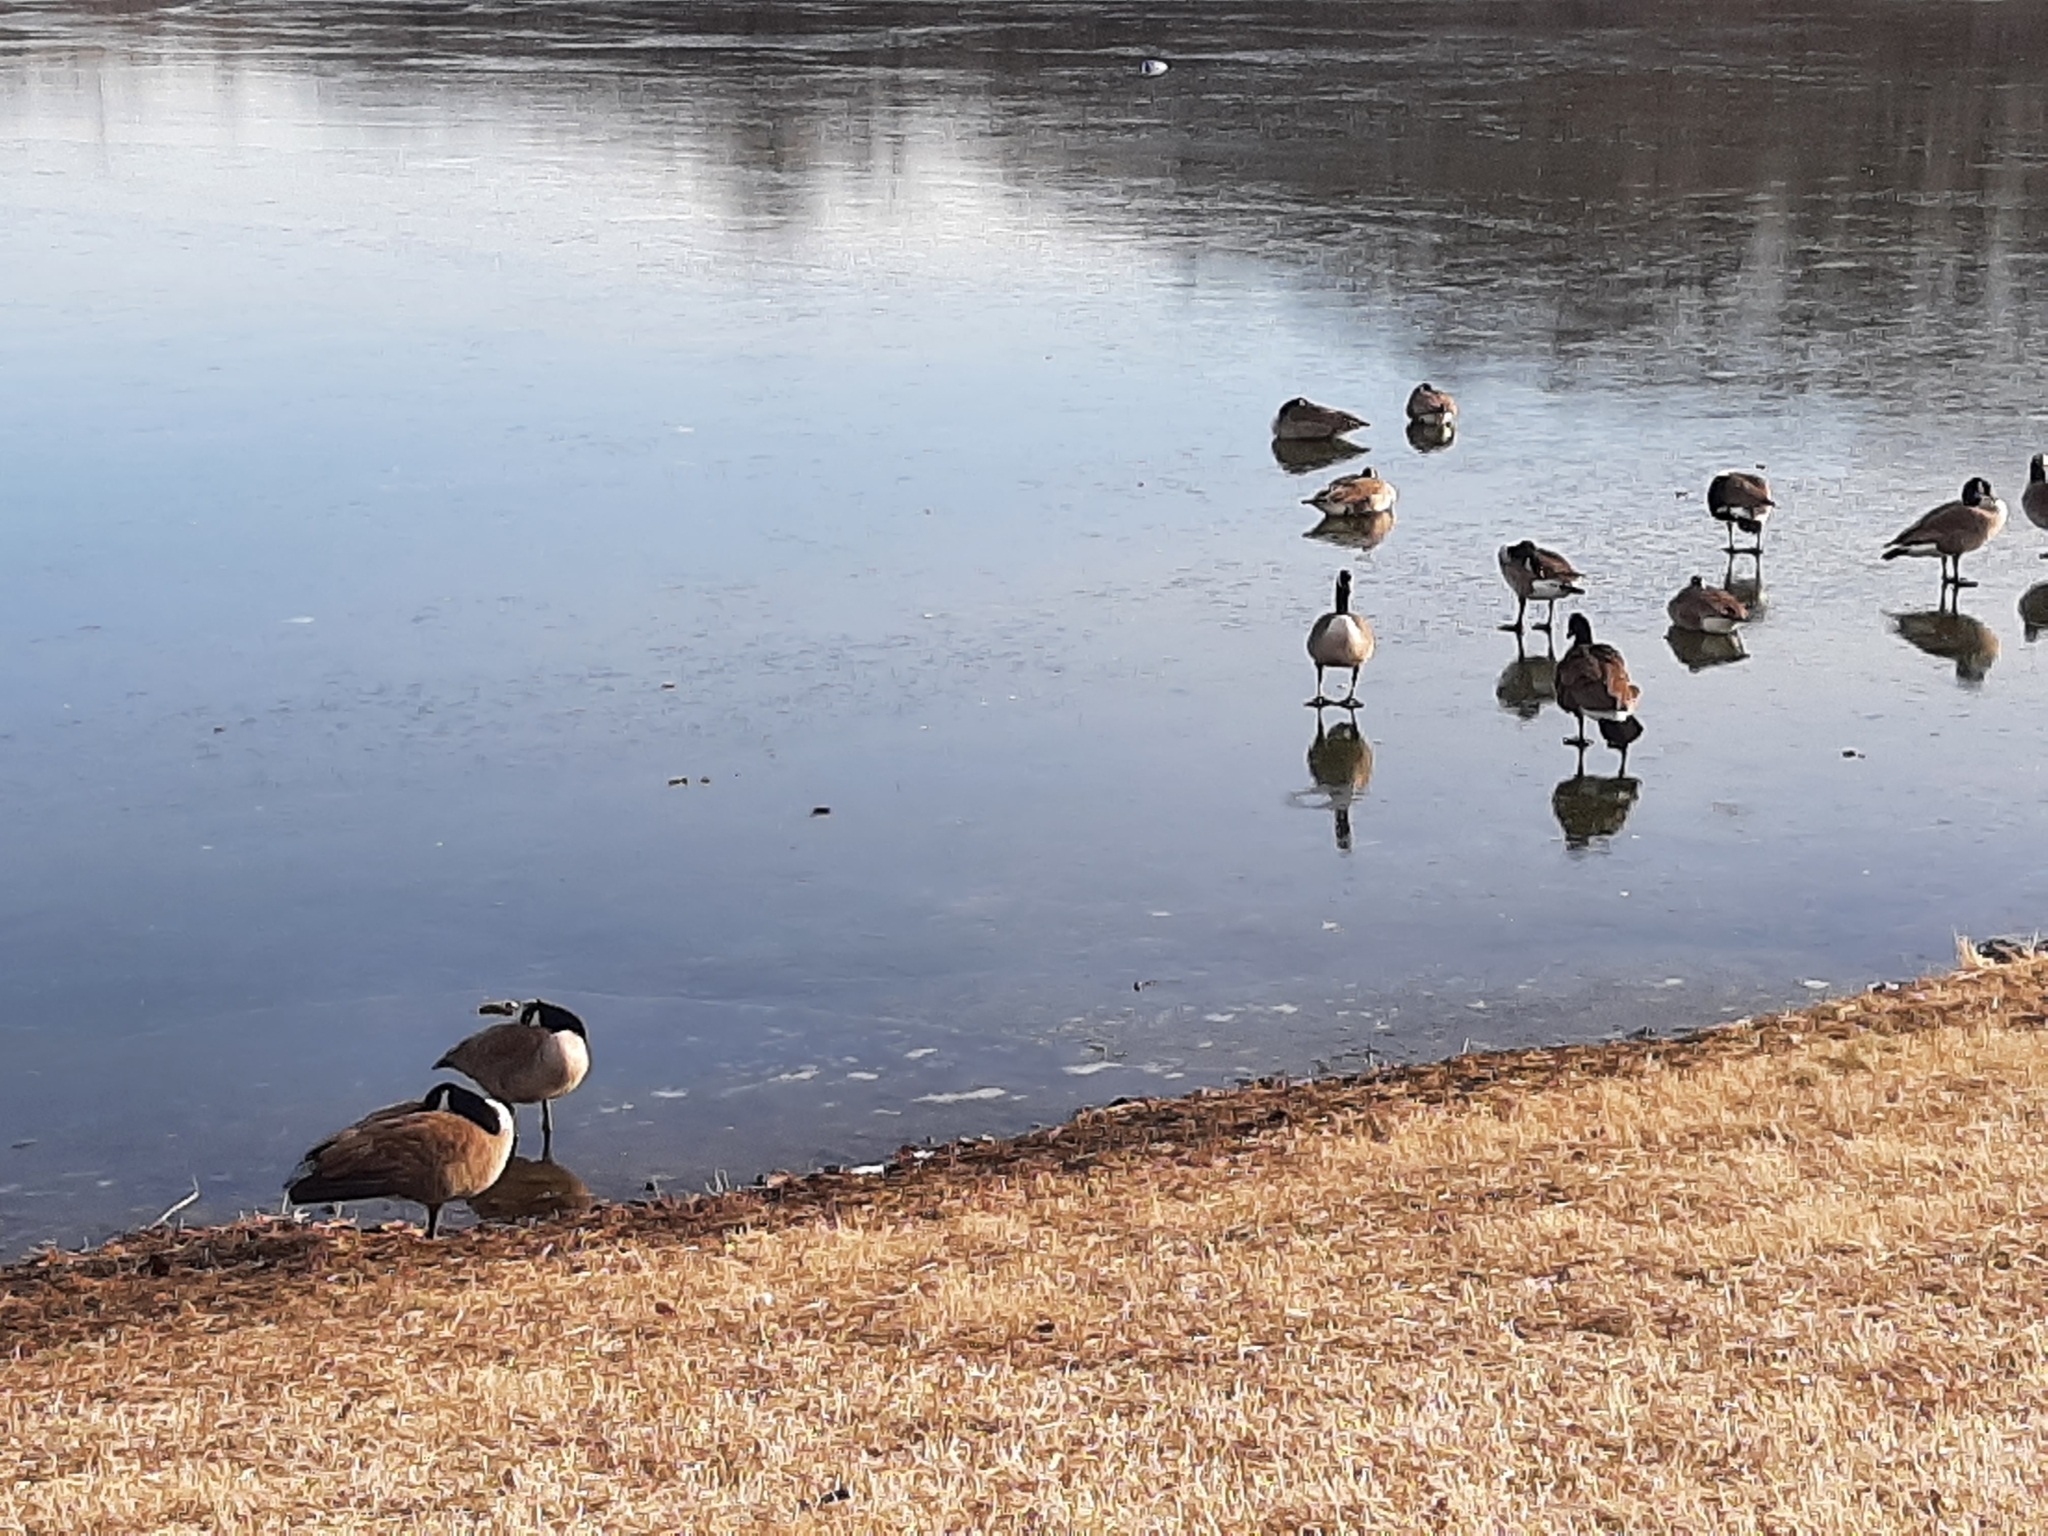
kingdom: Animalia
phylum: Chordata
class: Aves
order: Anseriformes
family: Anatidae
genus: Branta
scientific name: Branta canadensis
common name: Canada goose
